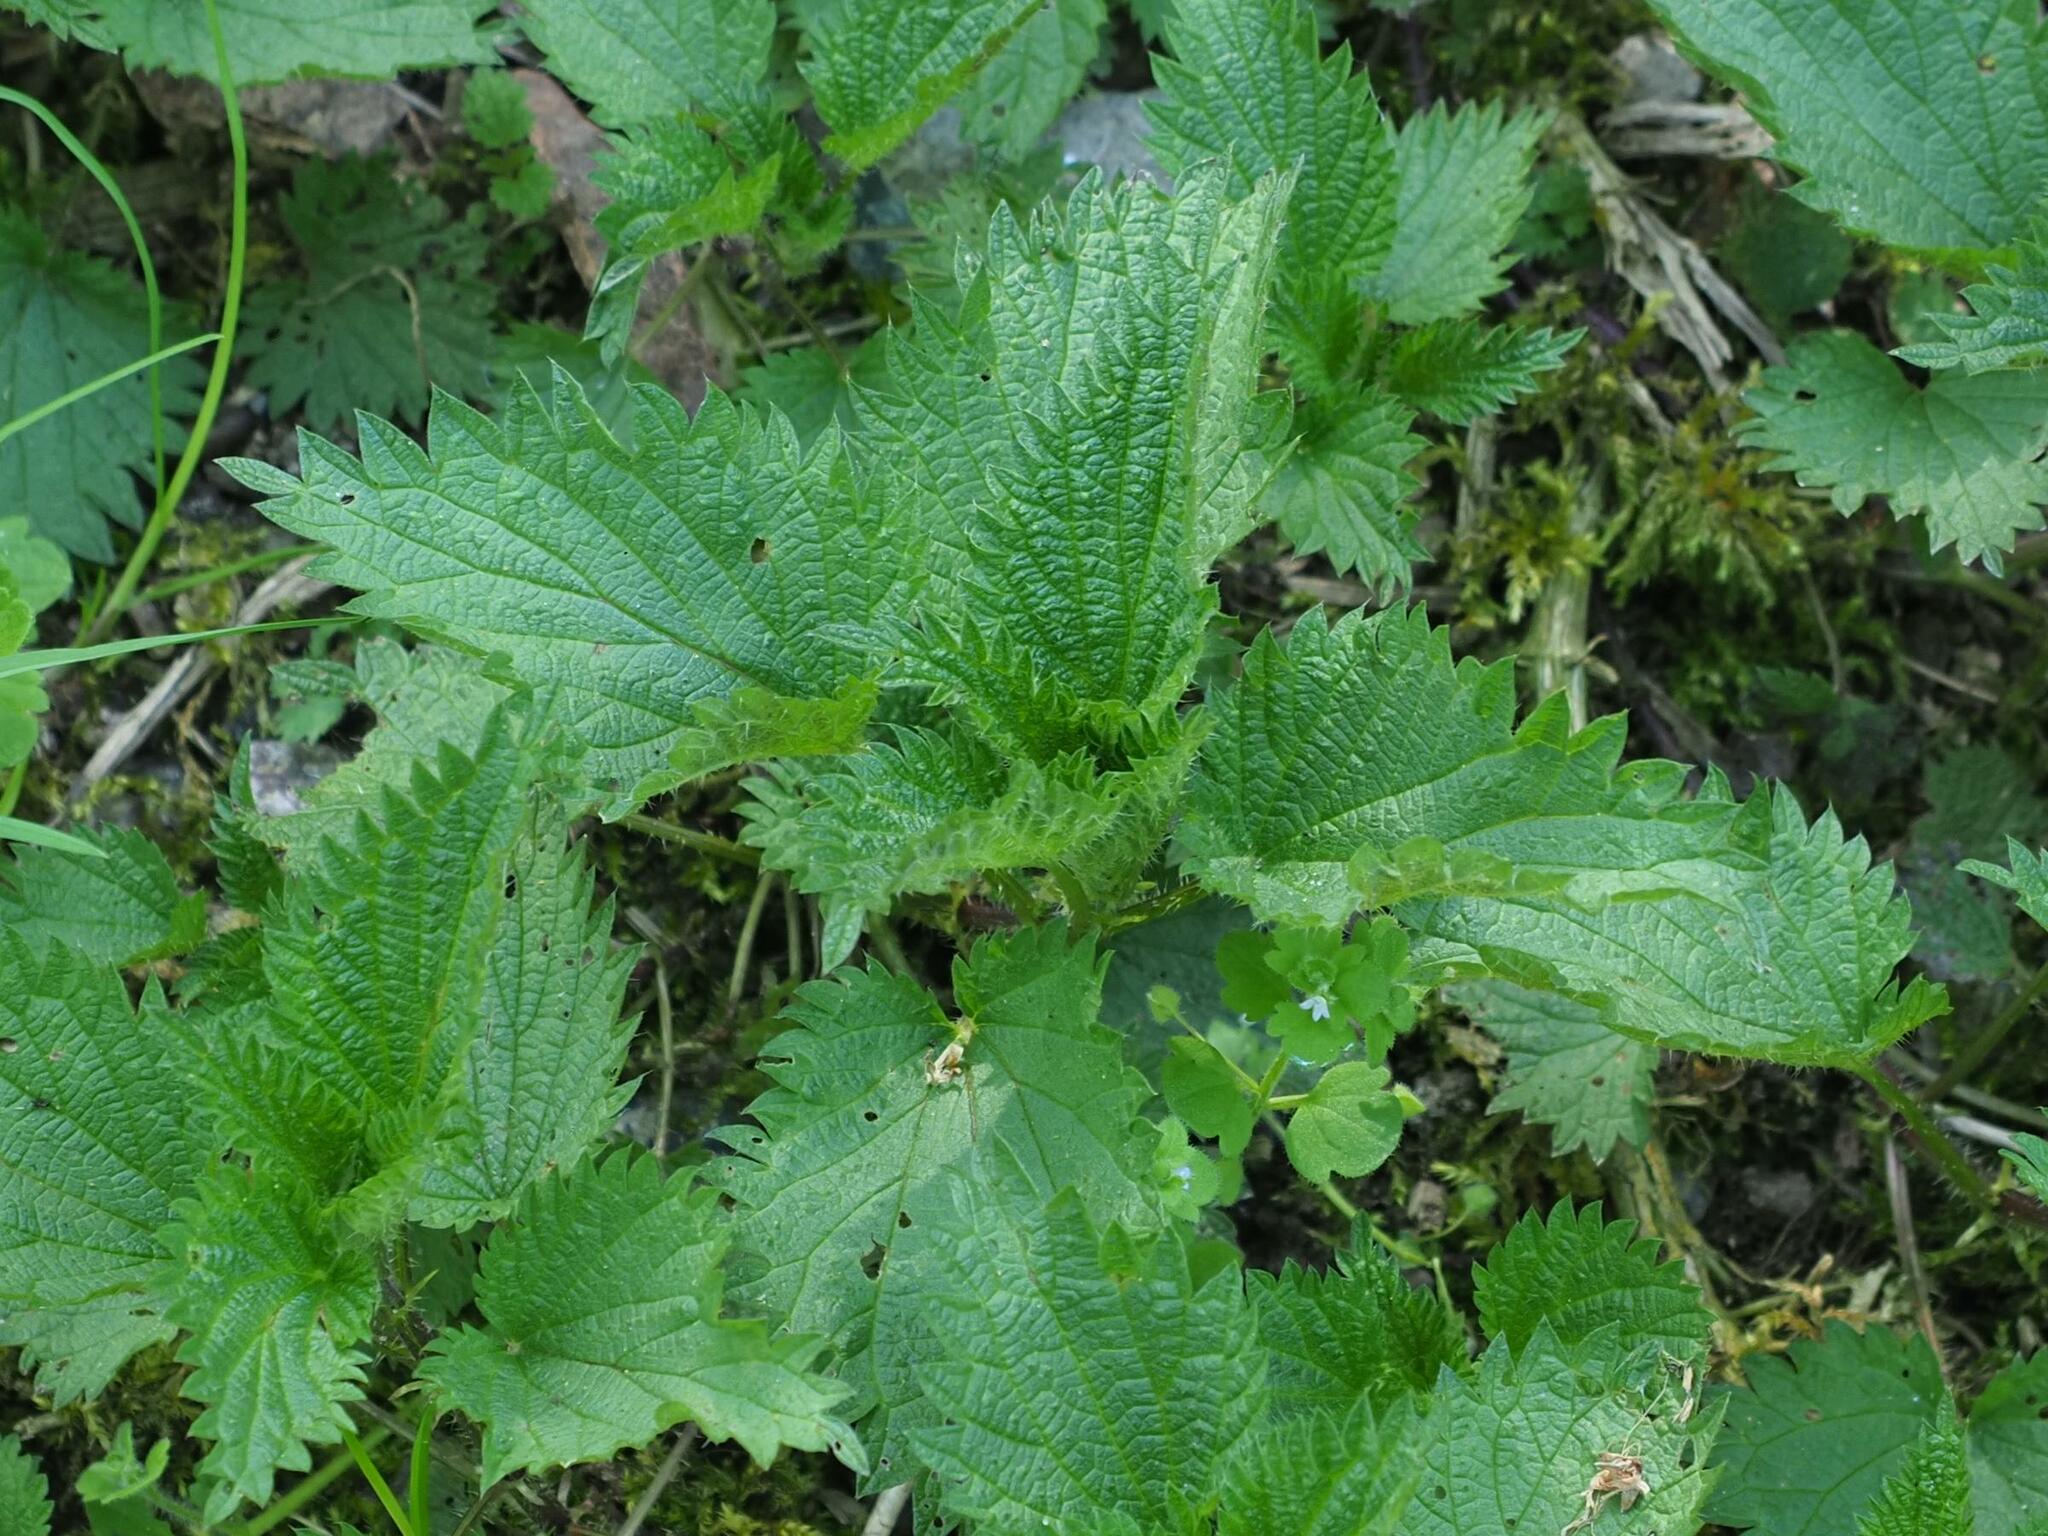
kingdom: Plantae
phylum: Tracheophyta
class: Magnoliopsida
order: Rosales
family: Urticaceae
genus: Urtica
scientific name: Urtica dioica
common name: Common nettle
